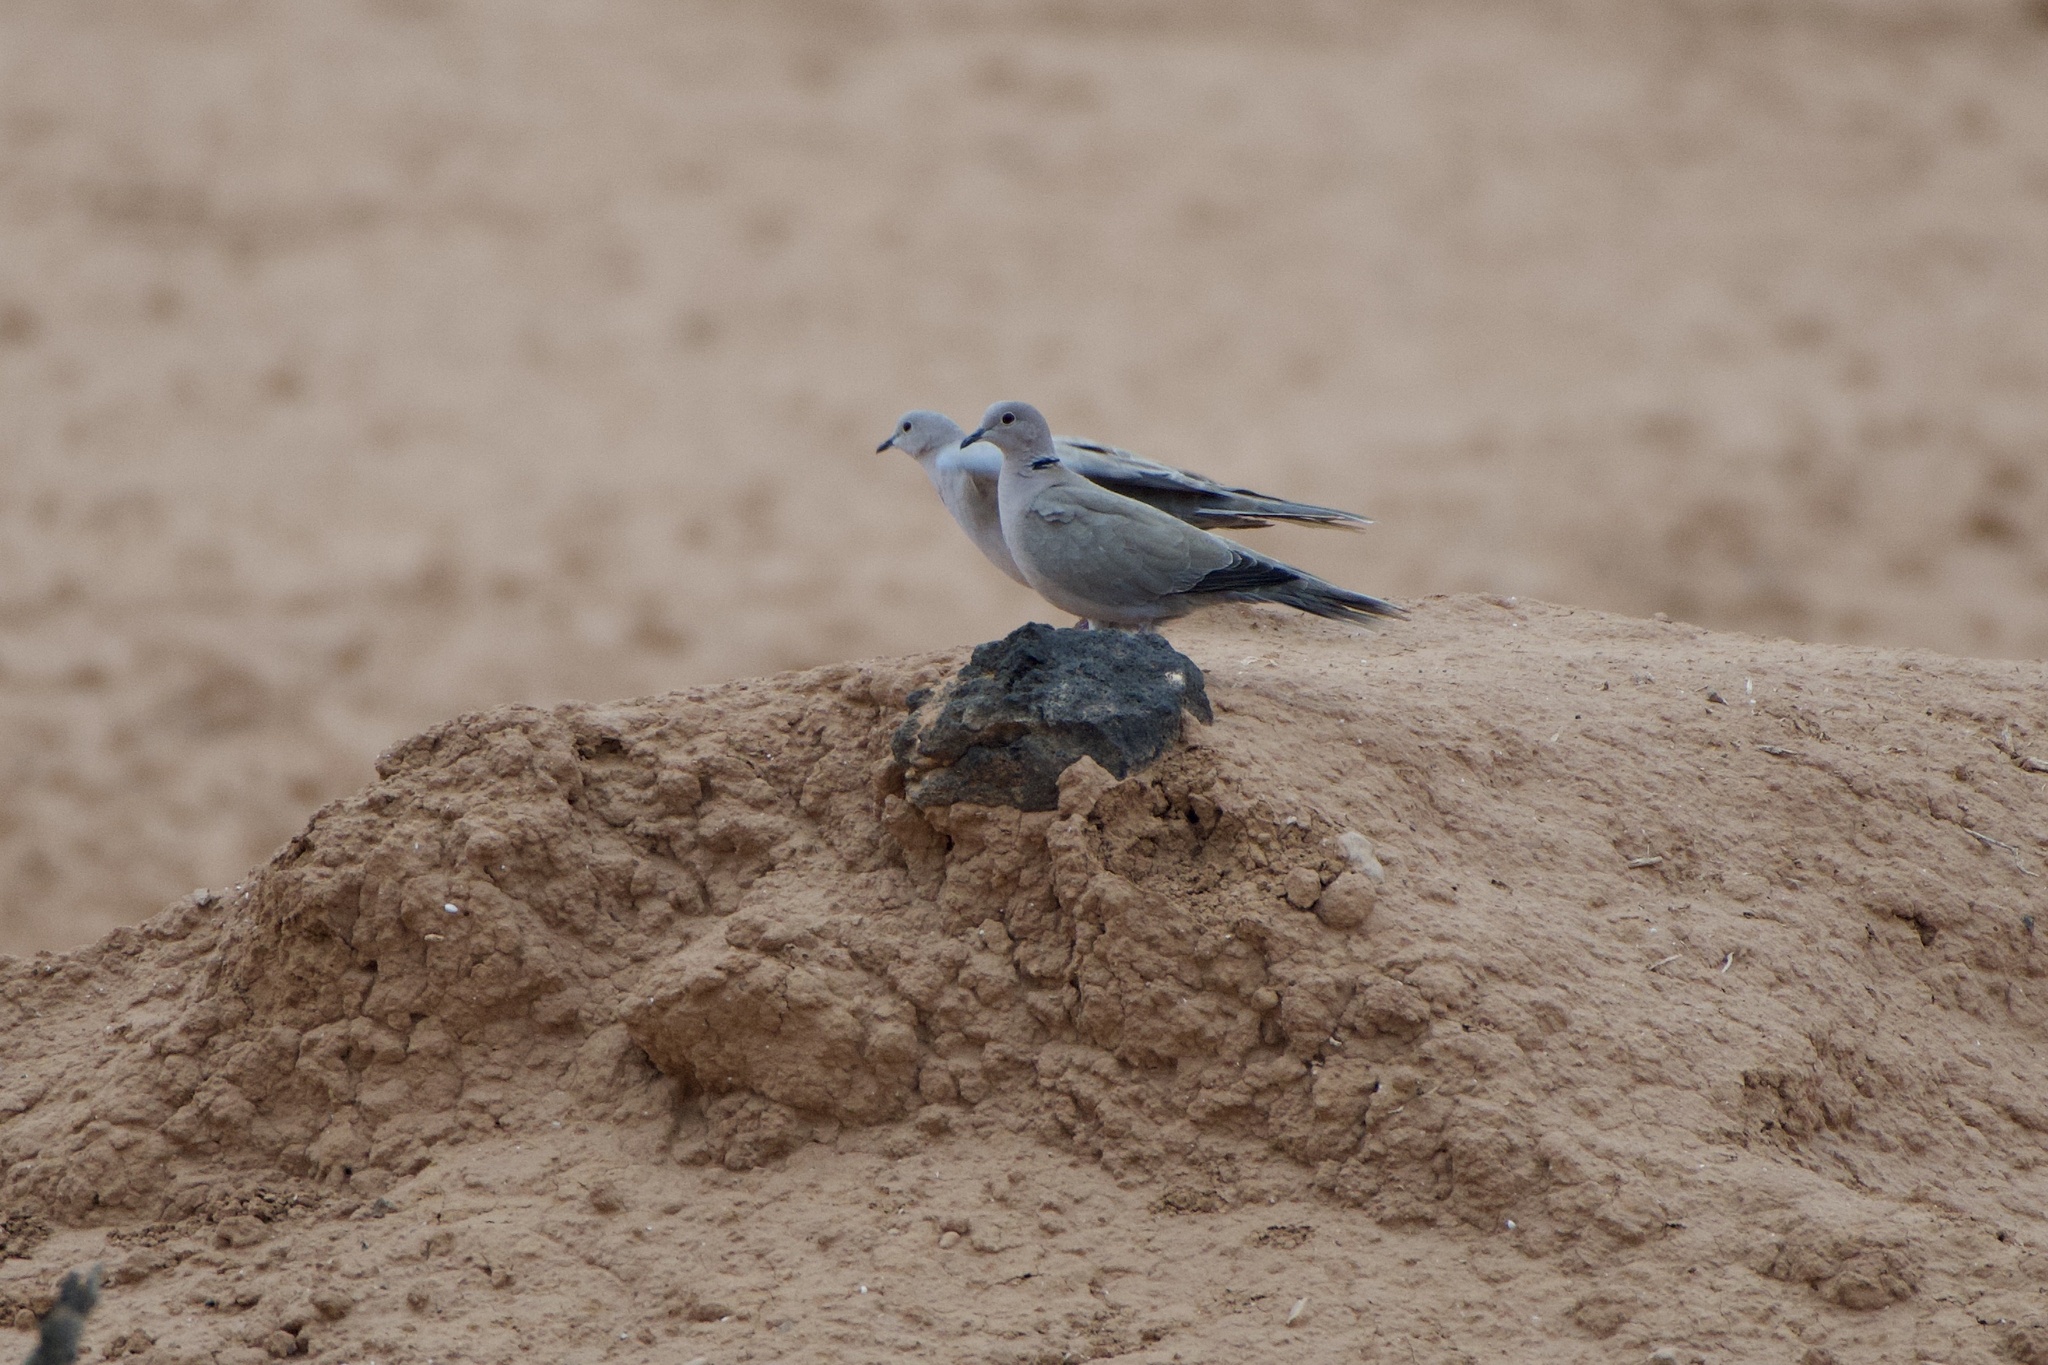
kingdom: Animalia
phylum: Chordata
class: Aves
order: Columbiformes
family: Columbidae
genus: Streptopelia
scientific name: Streptopelia decaocto
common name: Eurasian collared dove
